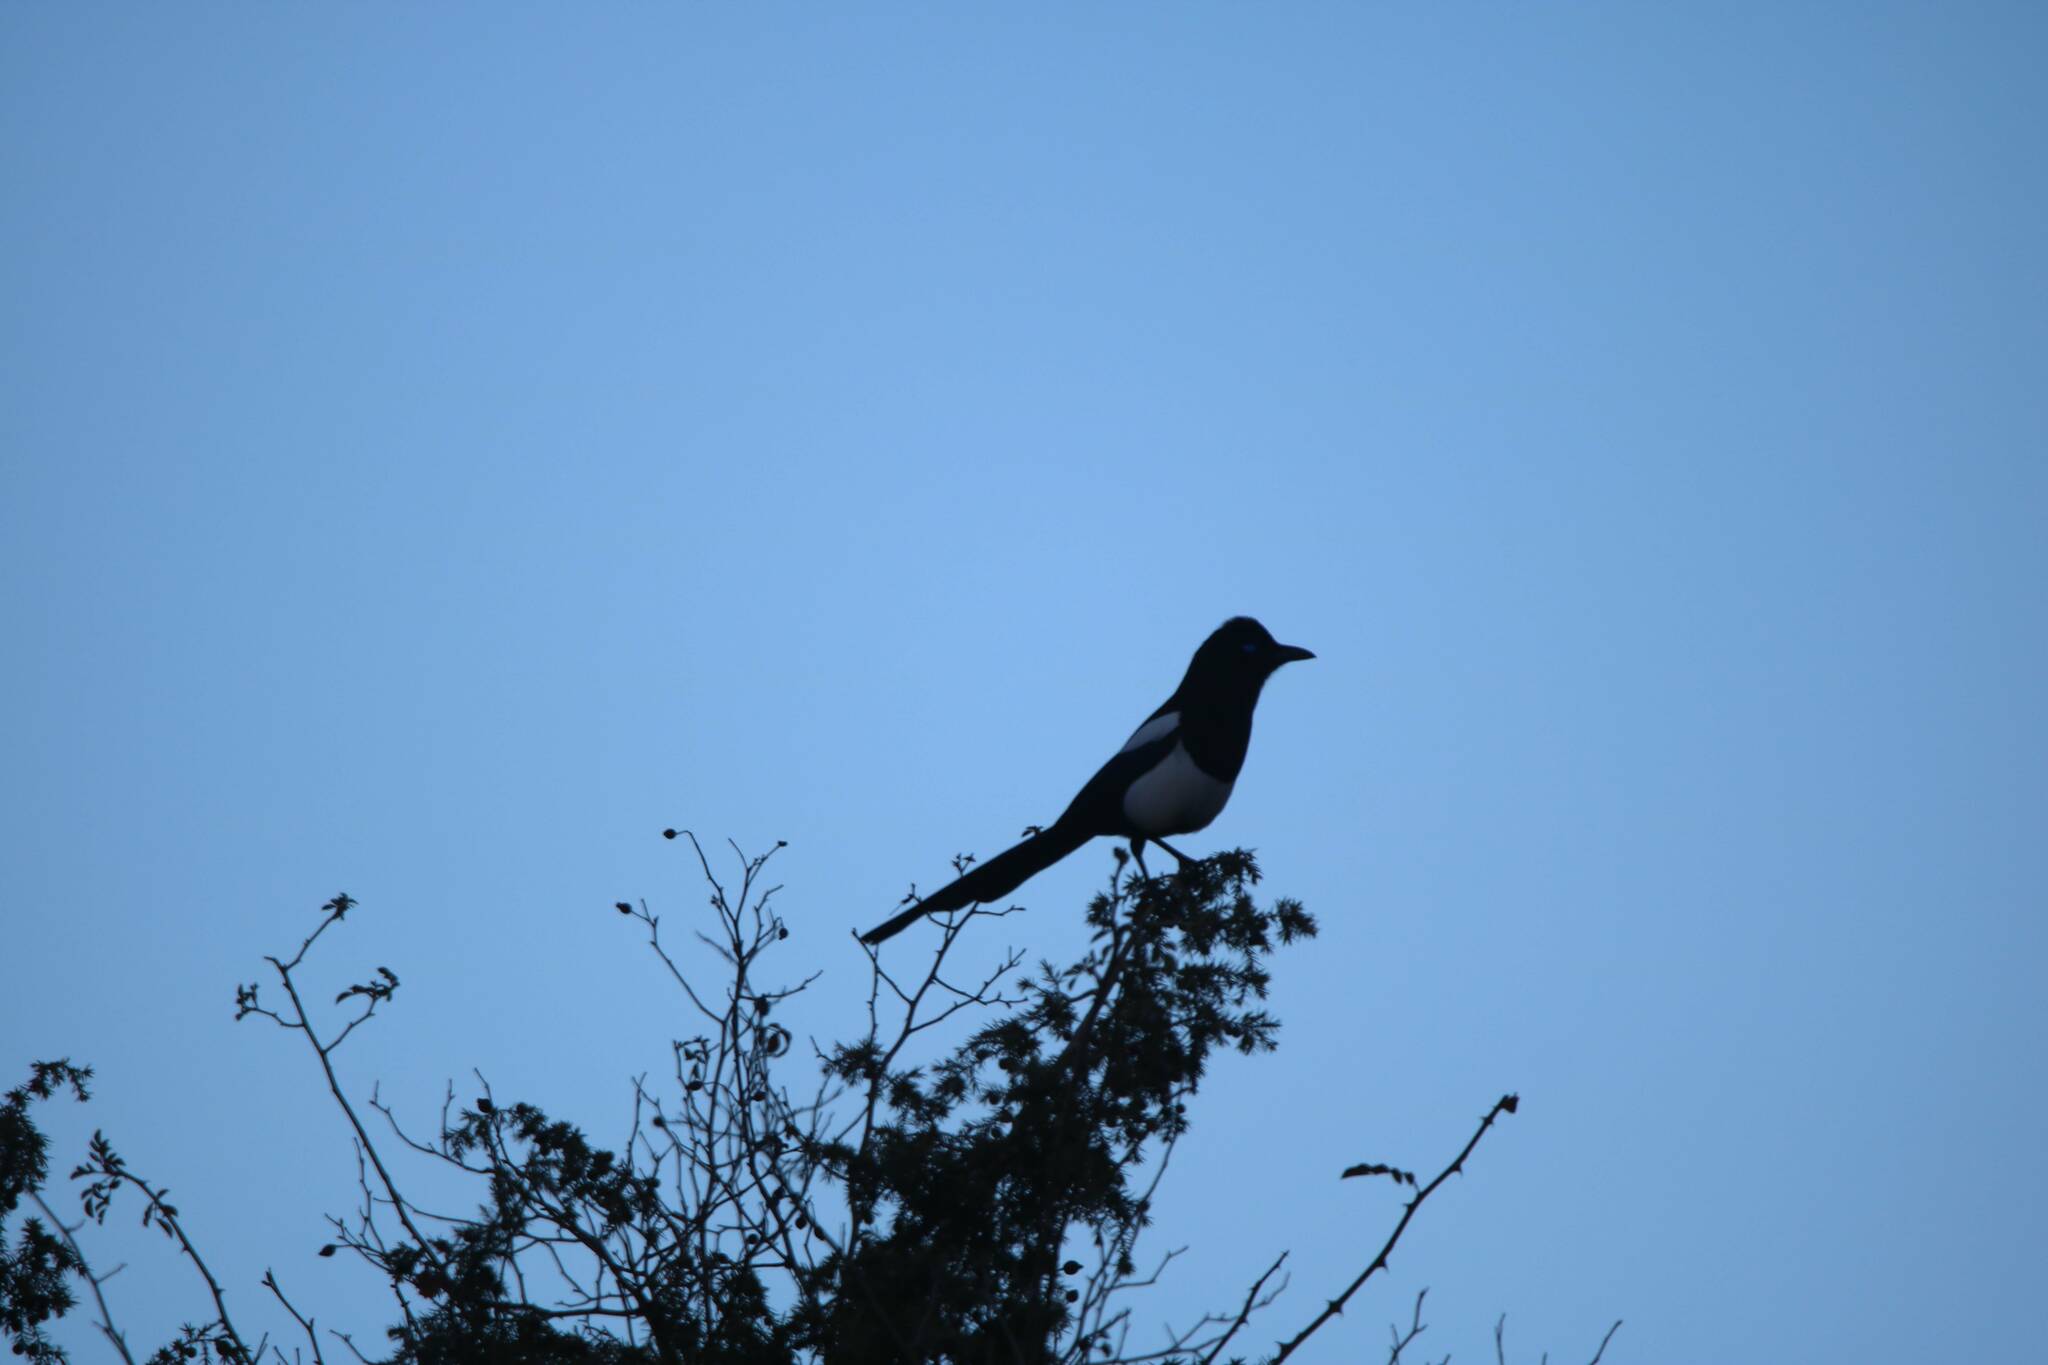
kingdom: Animalia
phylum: Chordata
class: Aves
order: Passeriformes
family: Corvidae
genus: Pica
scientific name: Pica mauritanica
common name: Maghreb magpie
